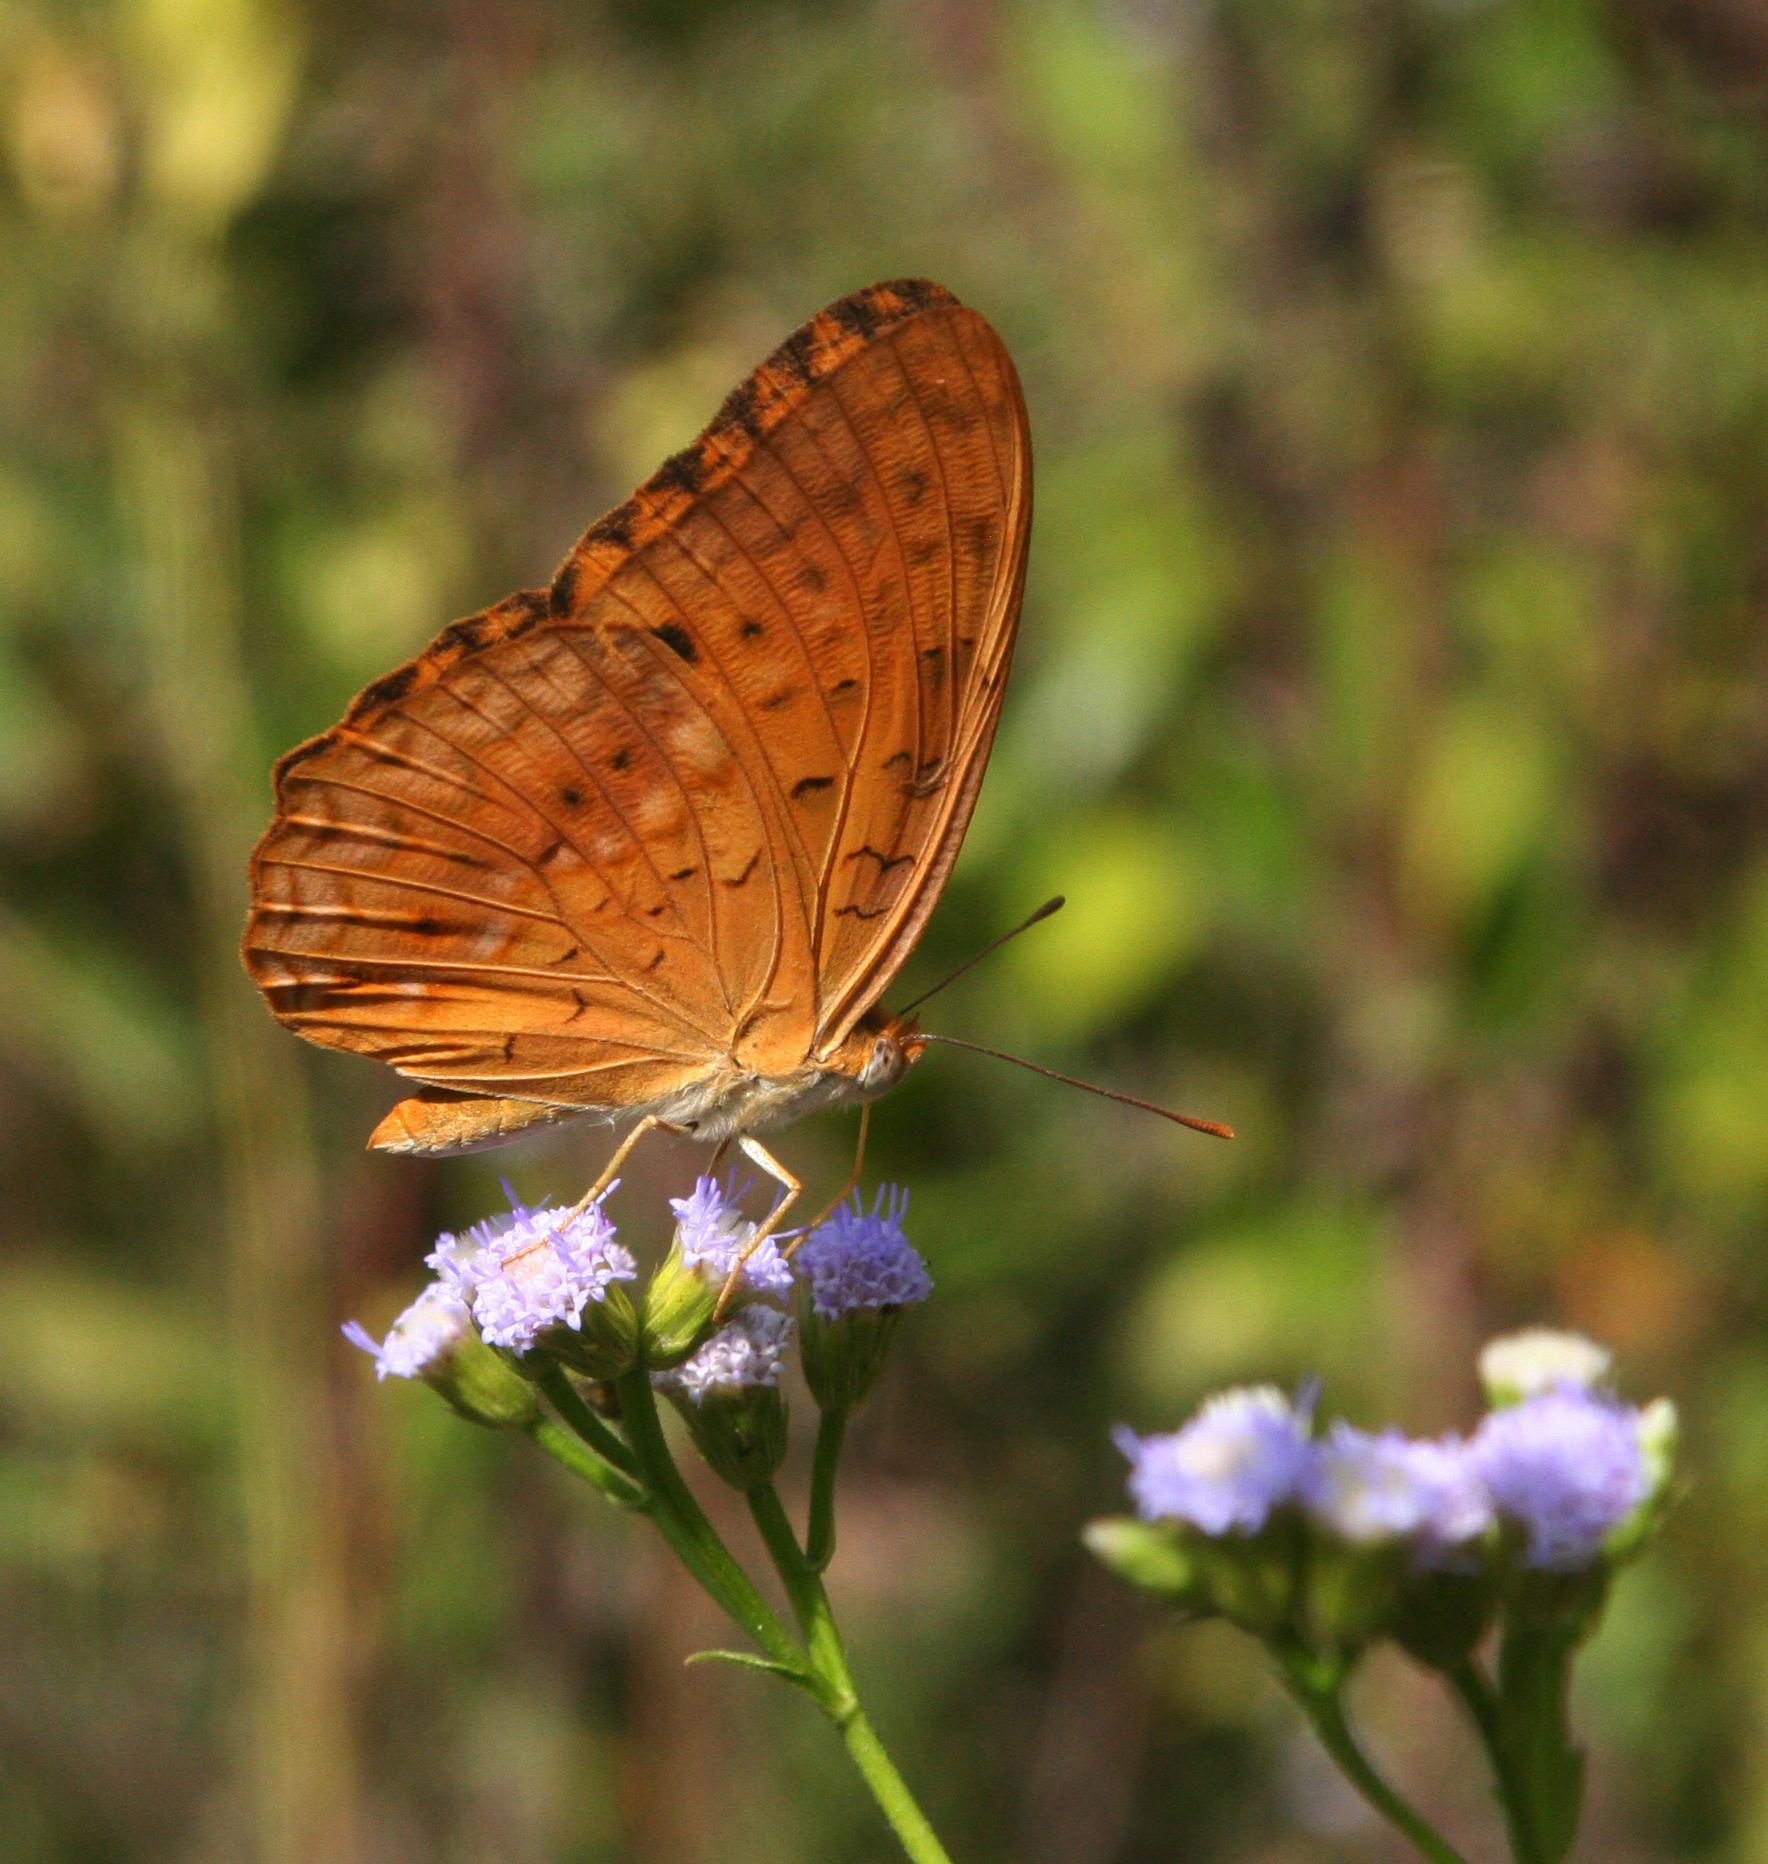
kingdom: Animalia
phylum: Arthropoda
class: Insecta
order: Lepidoptera
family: Nymphalidae
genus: Phalanta
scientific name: Phalanta phalantha
